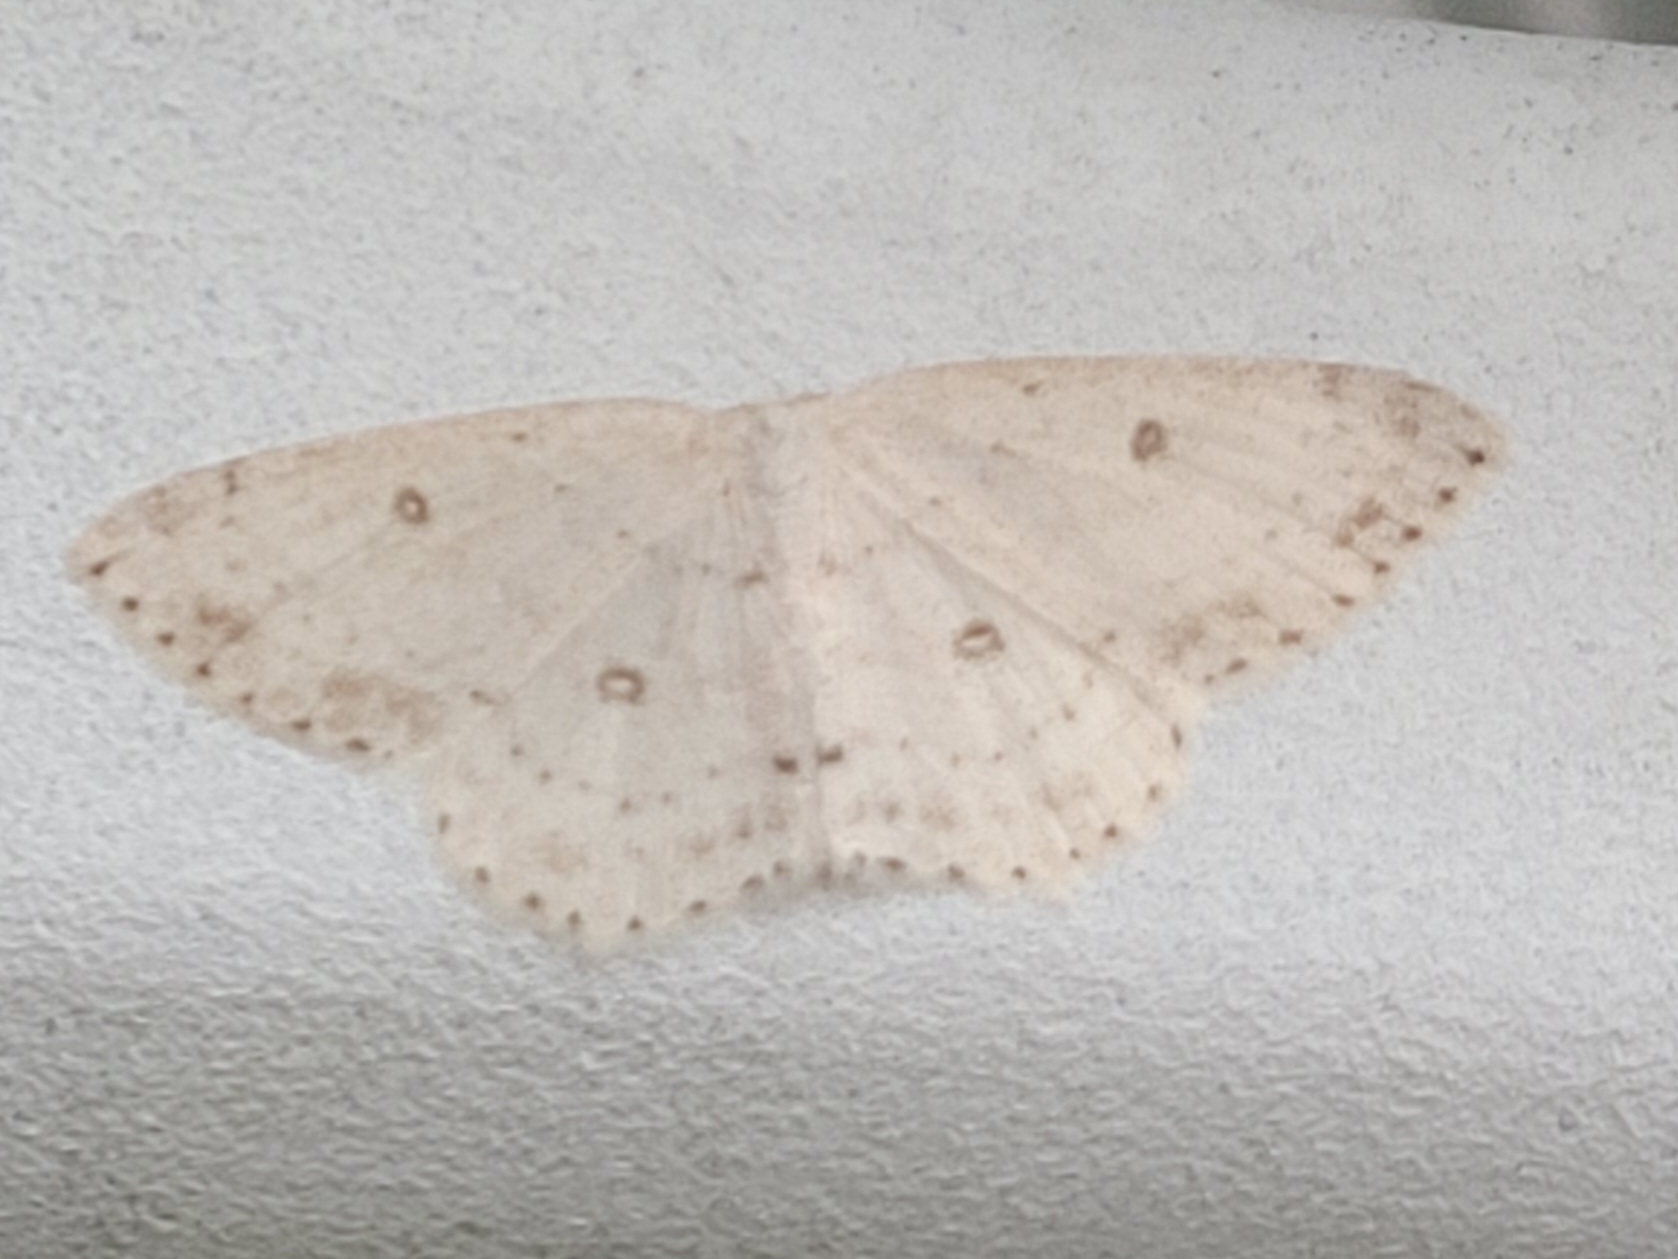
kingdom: Animalia
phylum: Arthropoda
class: Insecta
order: Lepidoptera
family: Geometridae
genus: Cyclophora
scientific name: Cyclophora pendulinaria
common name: Sweet fern geometer
